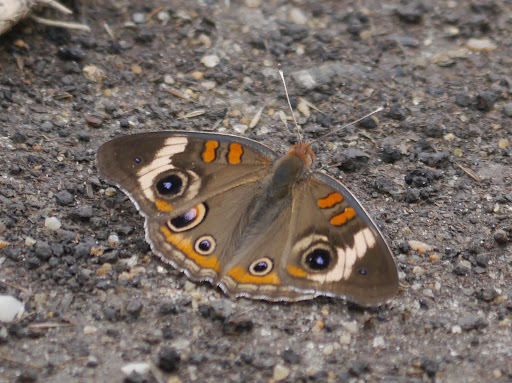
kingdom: Animalia
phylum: Arthropoda
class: Insecta
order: Lepidoptera
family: Nymphalidae
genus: Junonia
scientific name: Junonia coenia
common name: Common buckeye
